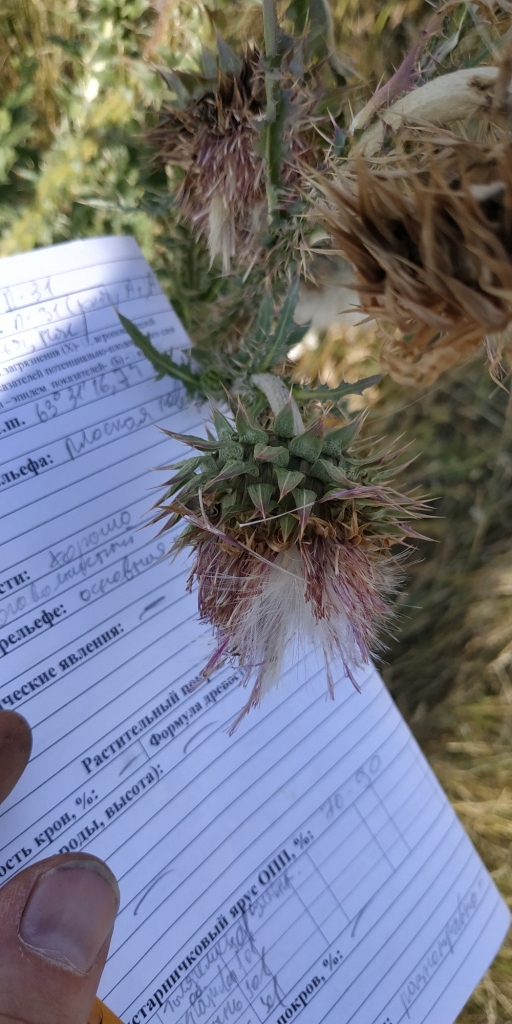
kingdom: Plantae
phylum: Tracheophyta
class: Magnoliopsida
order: Asterales
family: Asteraceae
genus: Carduus
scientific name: Carduus nutans
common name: Musk thistle
